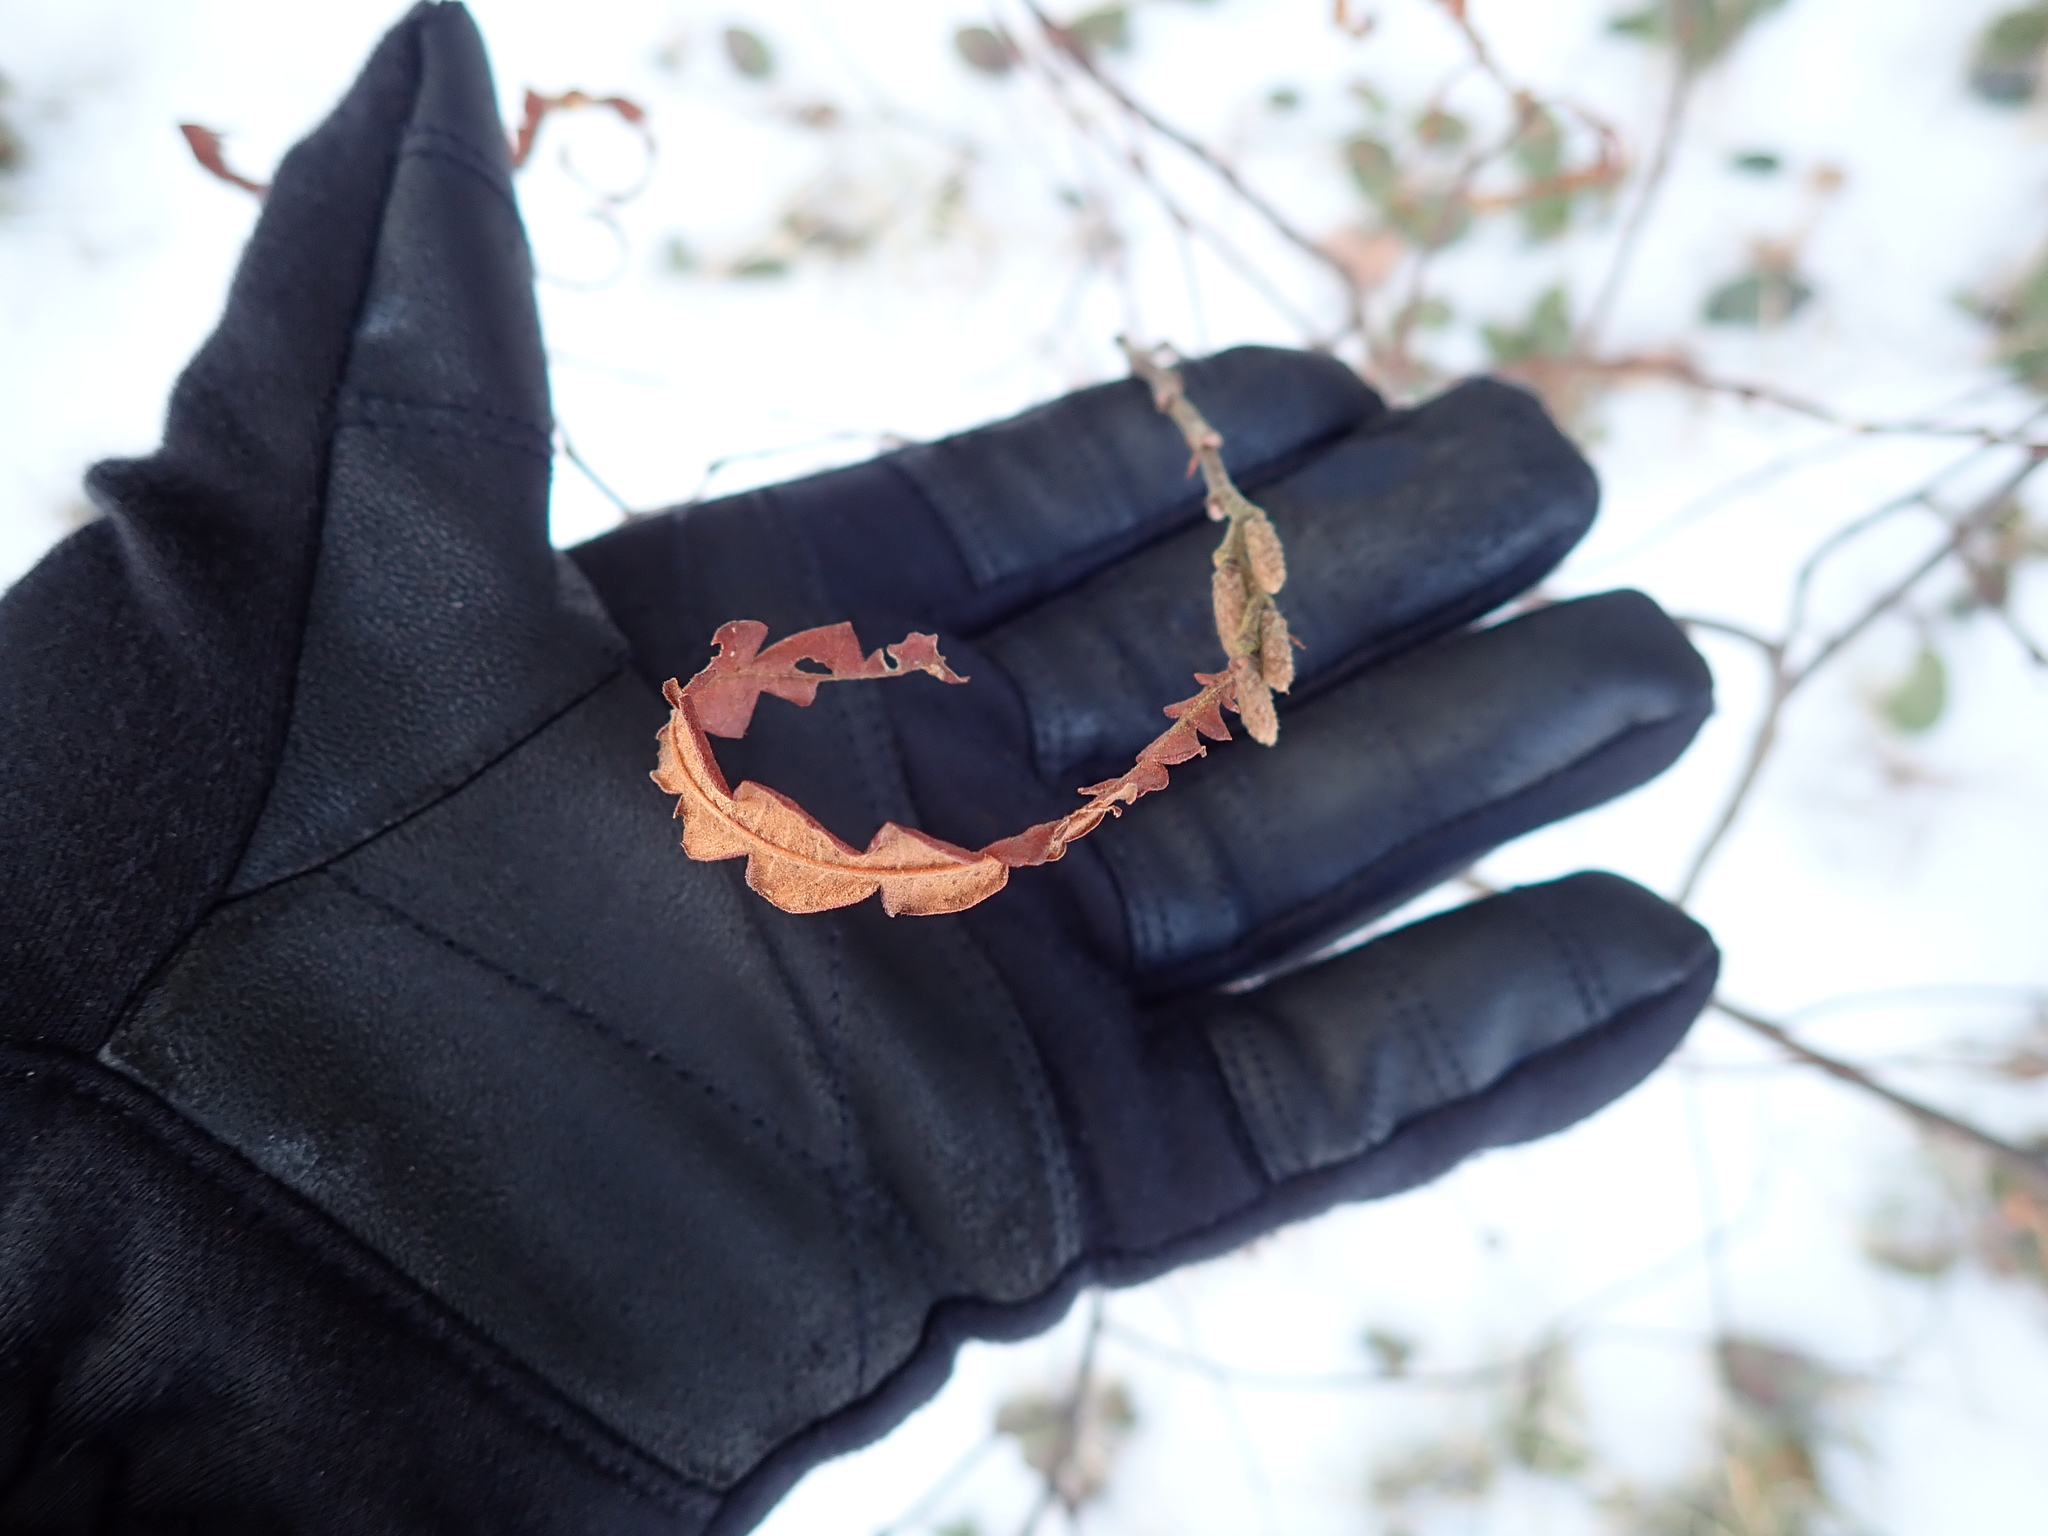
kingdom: Plantae
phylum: Tracheophyta
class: Magnoliopsida
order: Fagales
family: Myricaceae
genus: Comptonia
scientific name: Comptonia peregrina
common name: Sweet-fern
